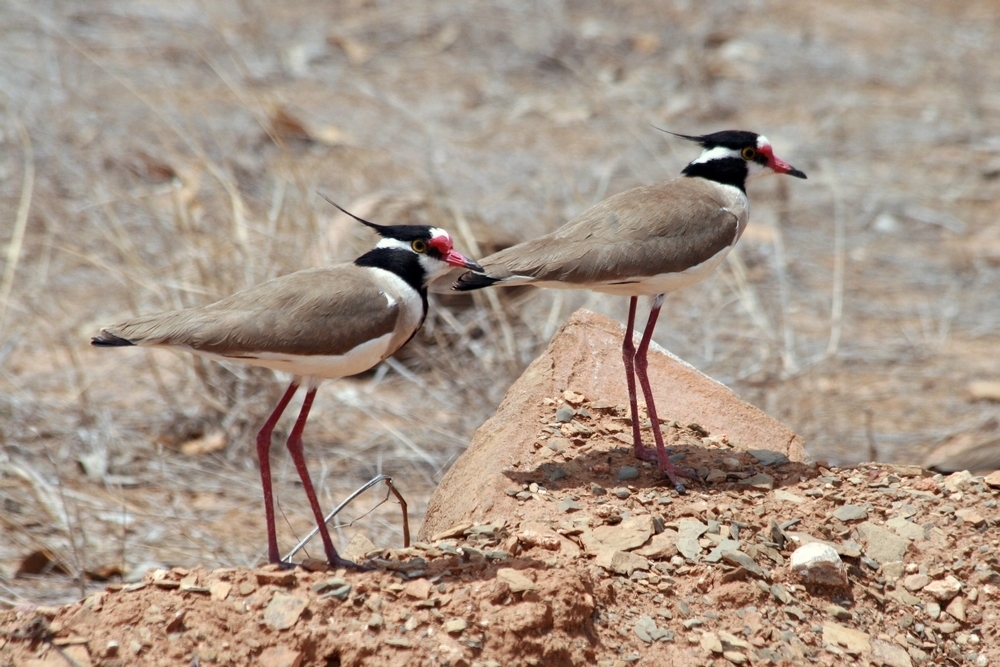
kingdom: Animalia
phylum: Chordata
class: Aves
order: Charadriiformes
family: Charadriidae
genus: Vanellus
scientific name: Vanellus tectus
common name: Black-headed lapwing
